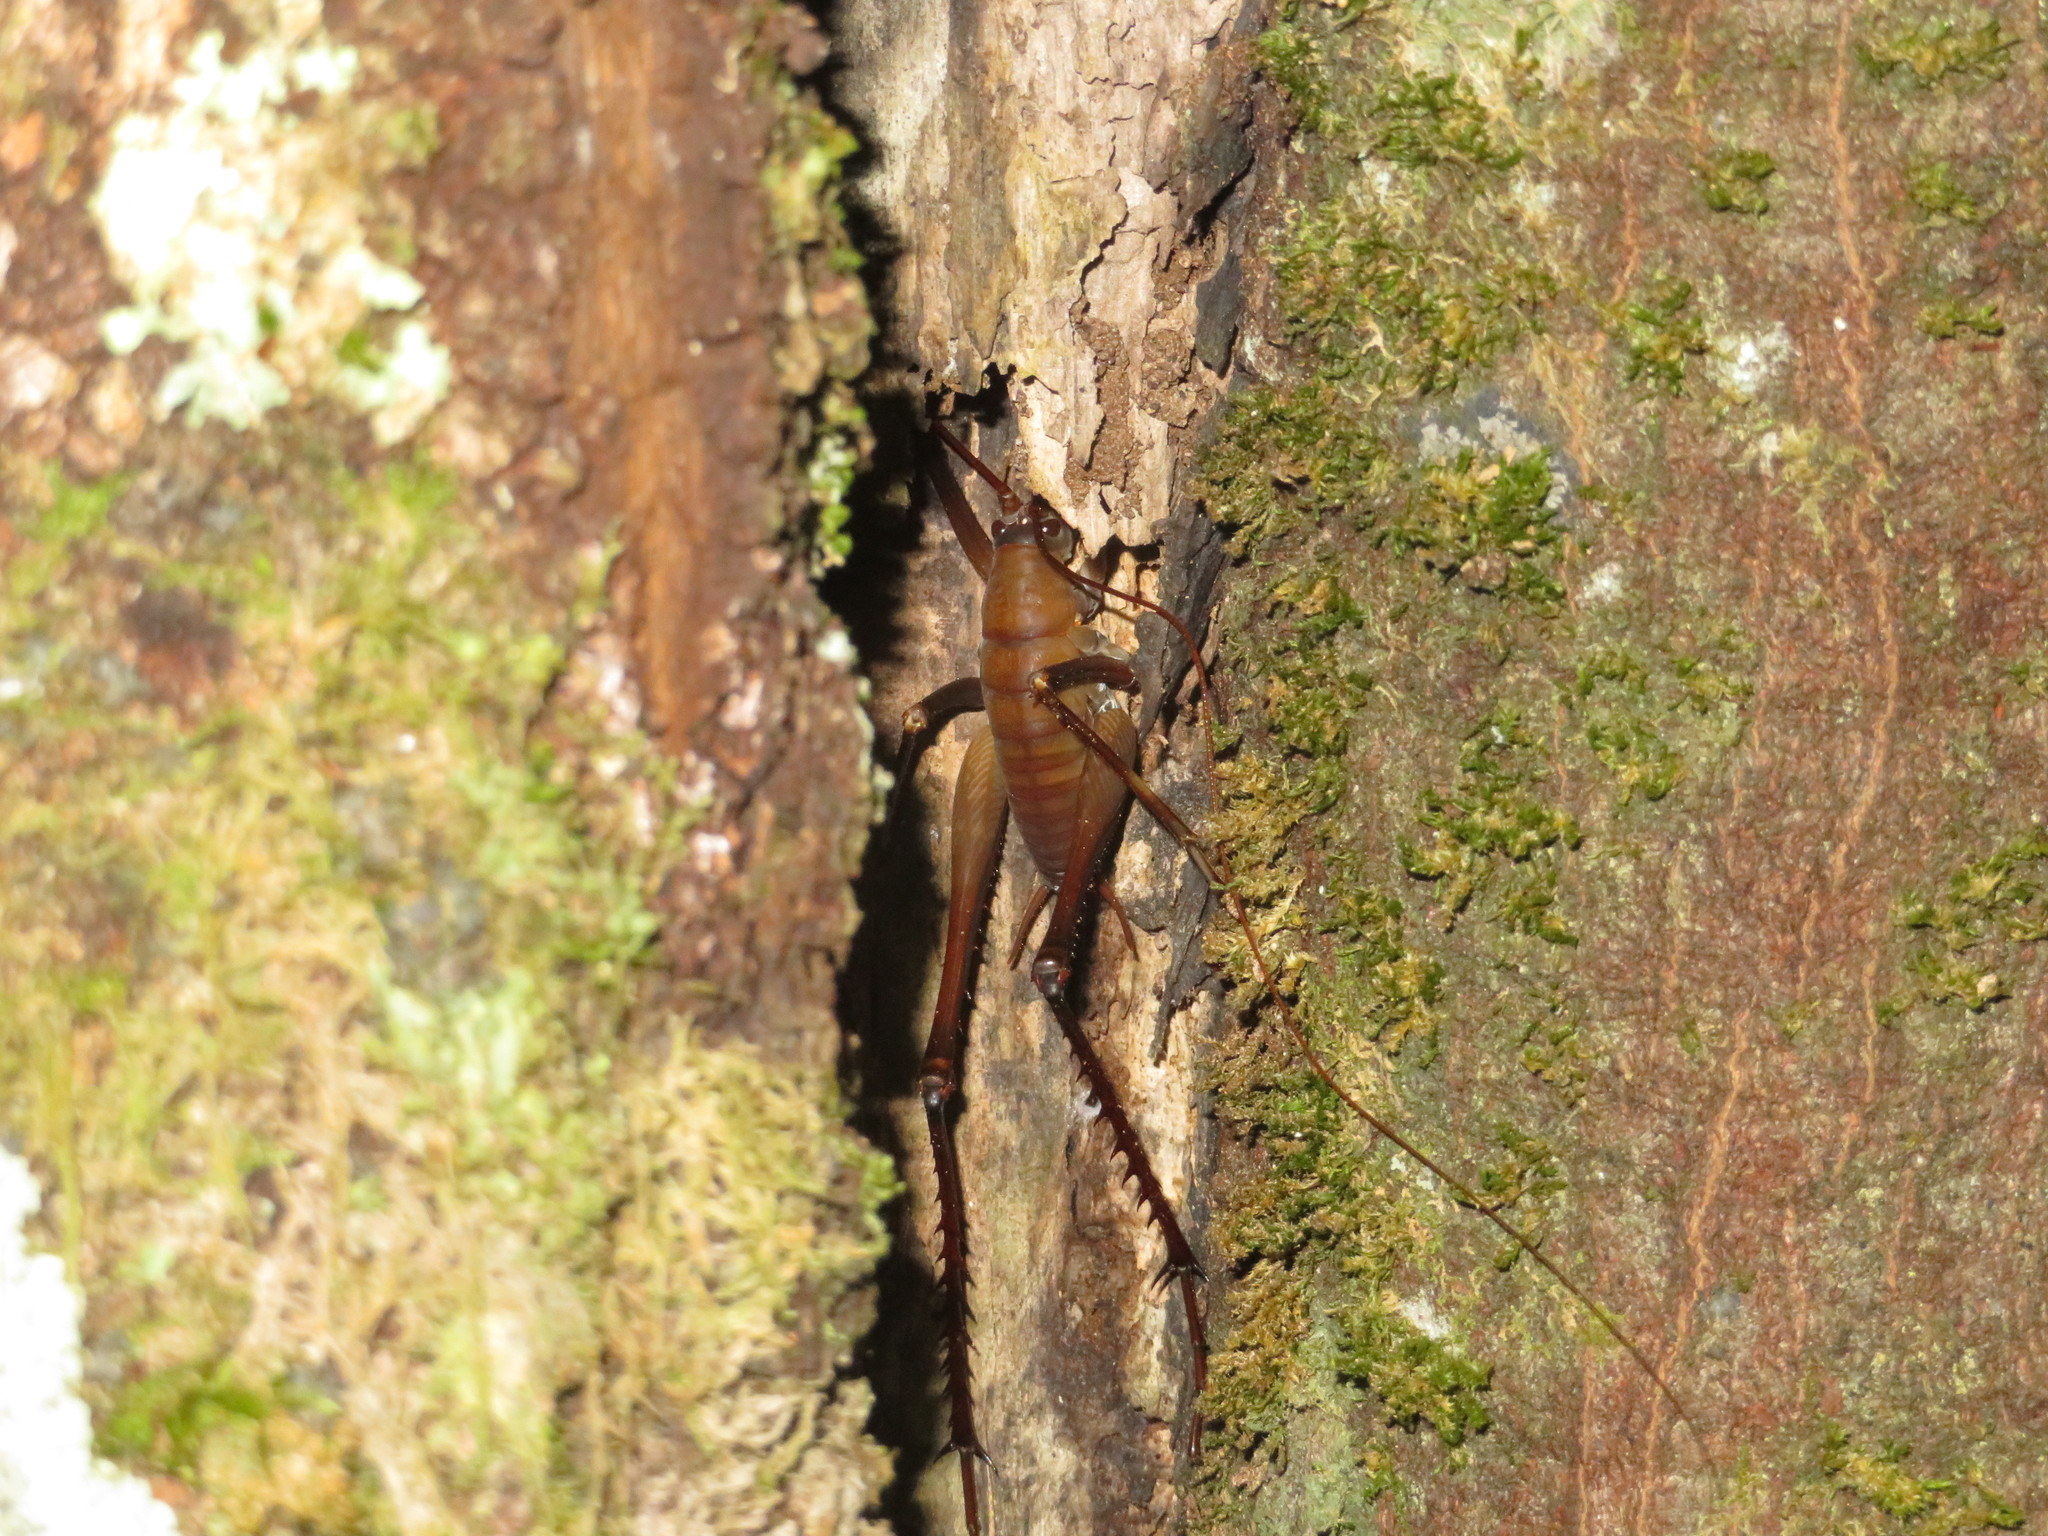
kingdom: Animalia
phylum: Arthropoda
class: Insecta
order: Orthoptera
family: Rhaphidophoridae
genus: Pachyrhamma
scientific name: Pachyrhamma longipes
